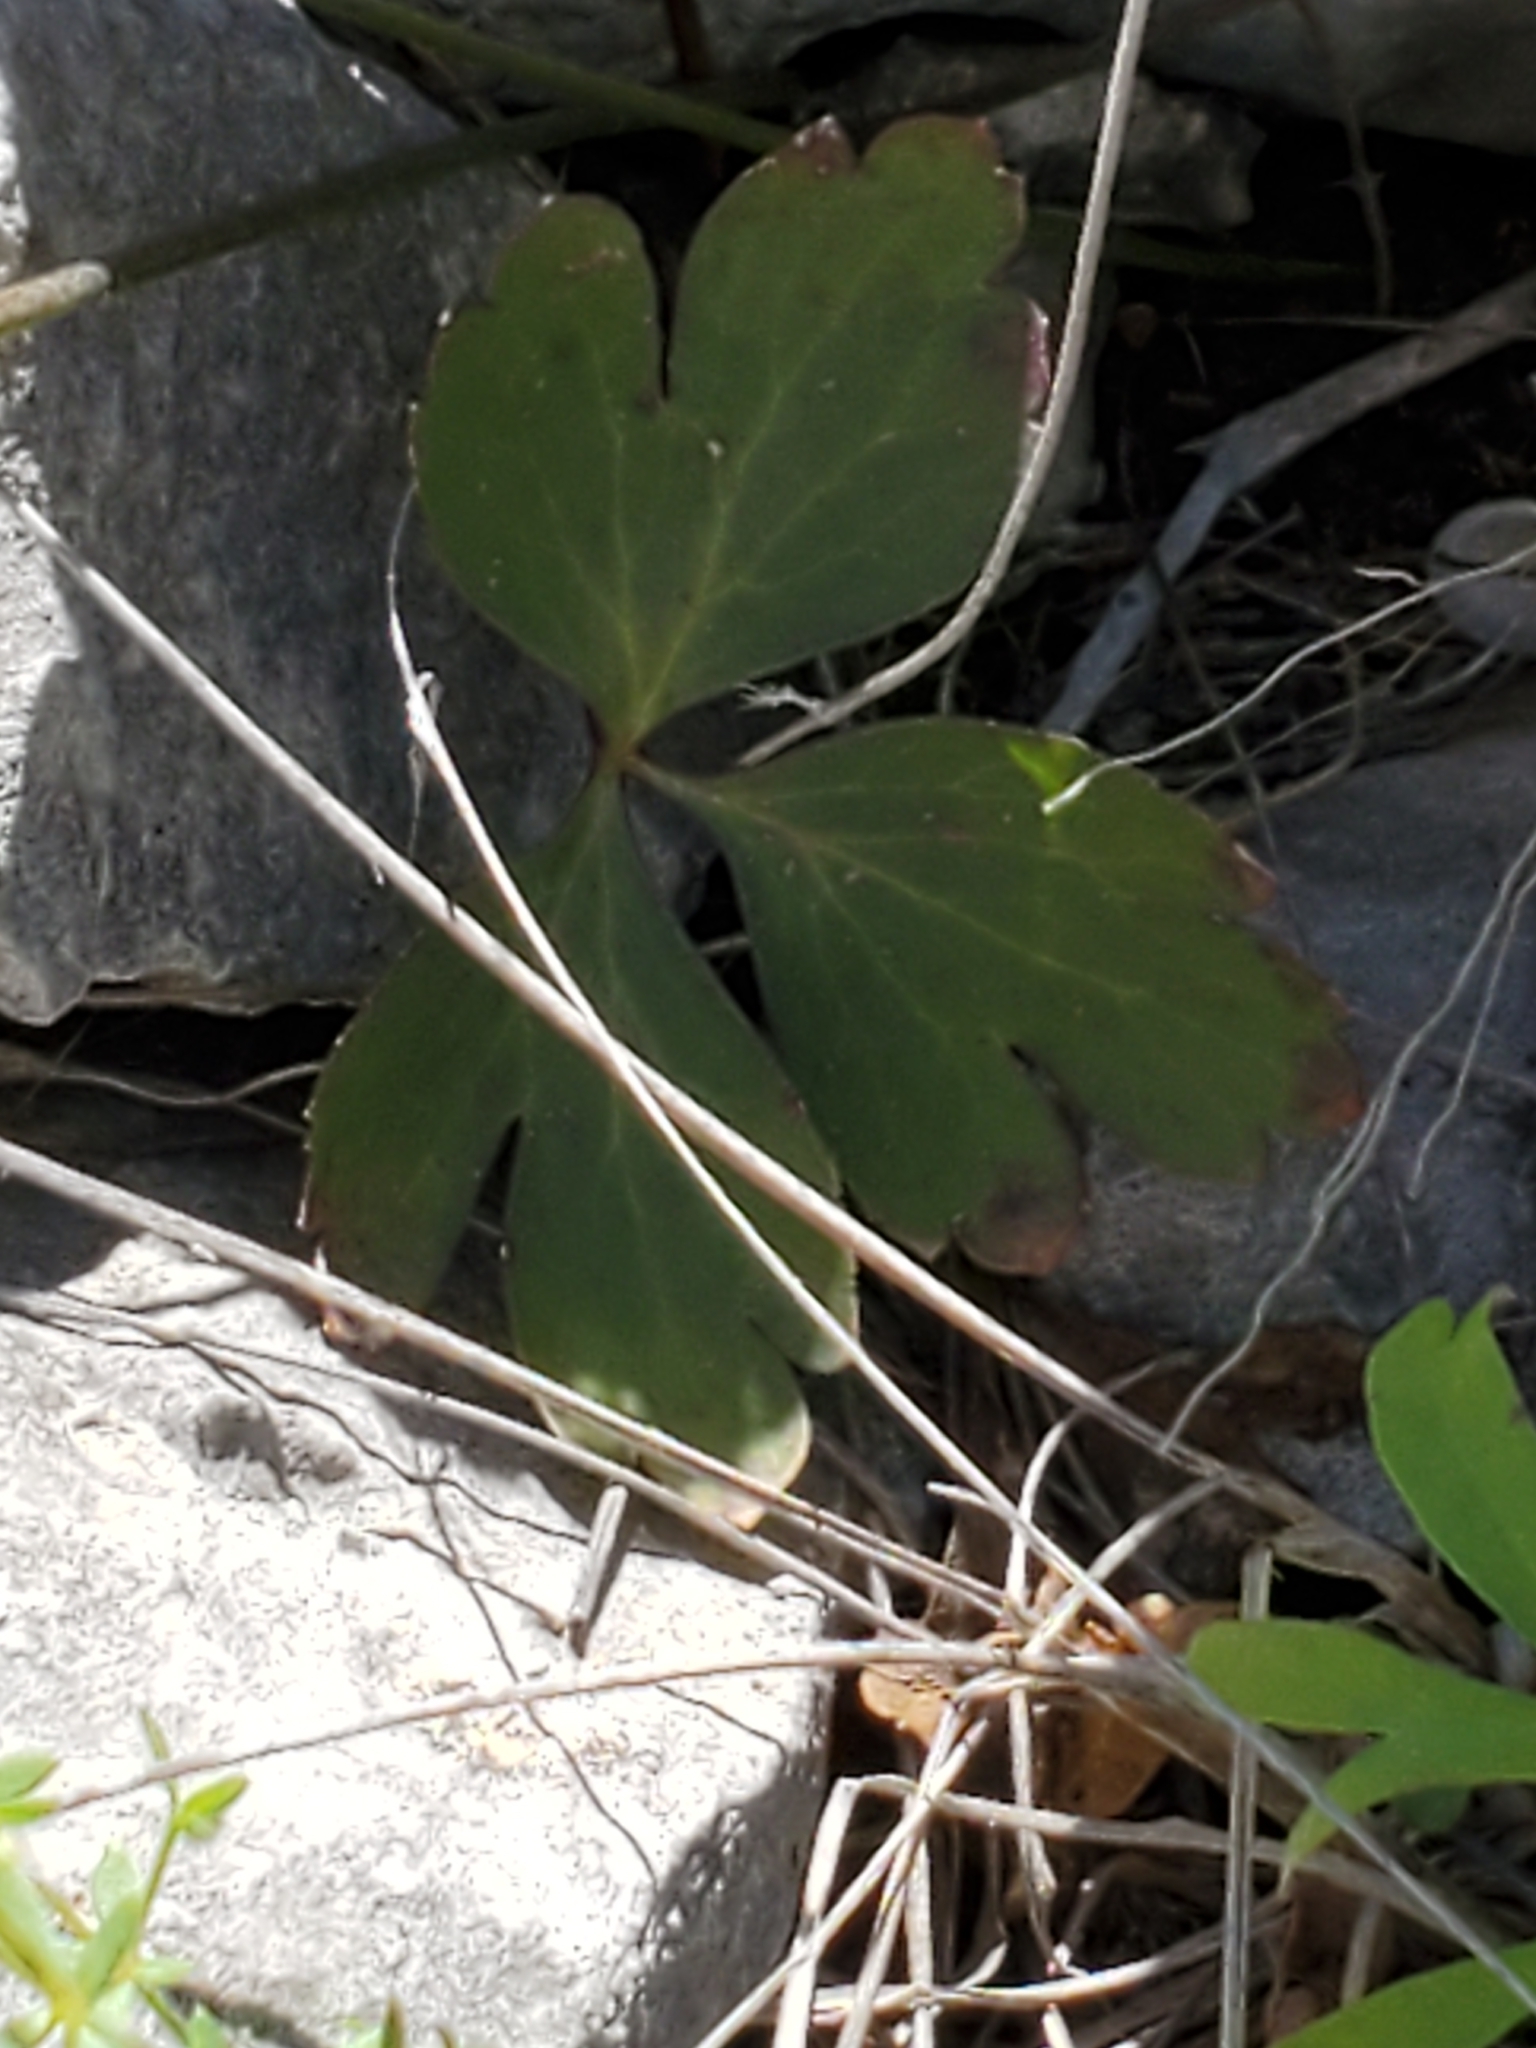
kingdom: Plantae
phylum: Tracheophyta
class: Magnoliopsida
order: Ranunculales
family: Ranunculaceae
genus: Anemone
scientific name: Anemone edwardsiana
